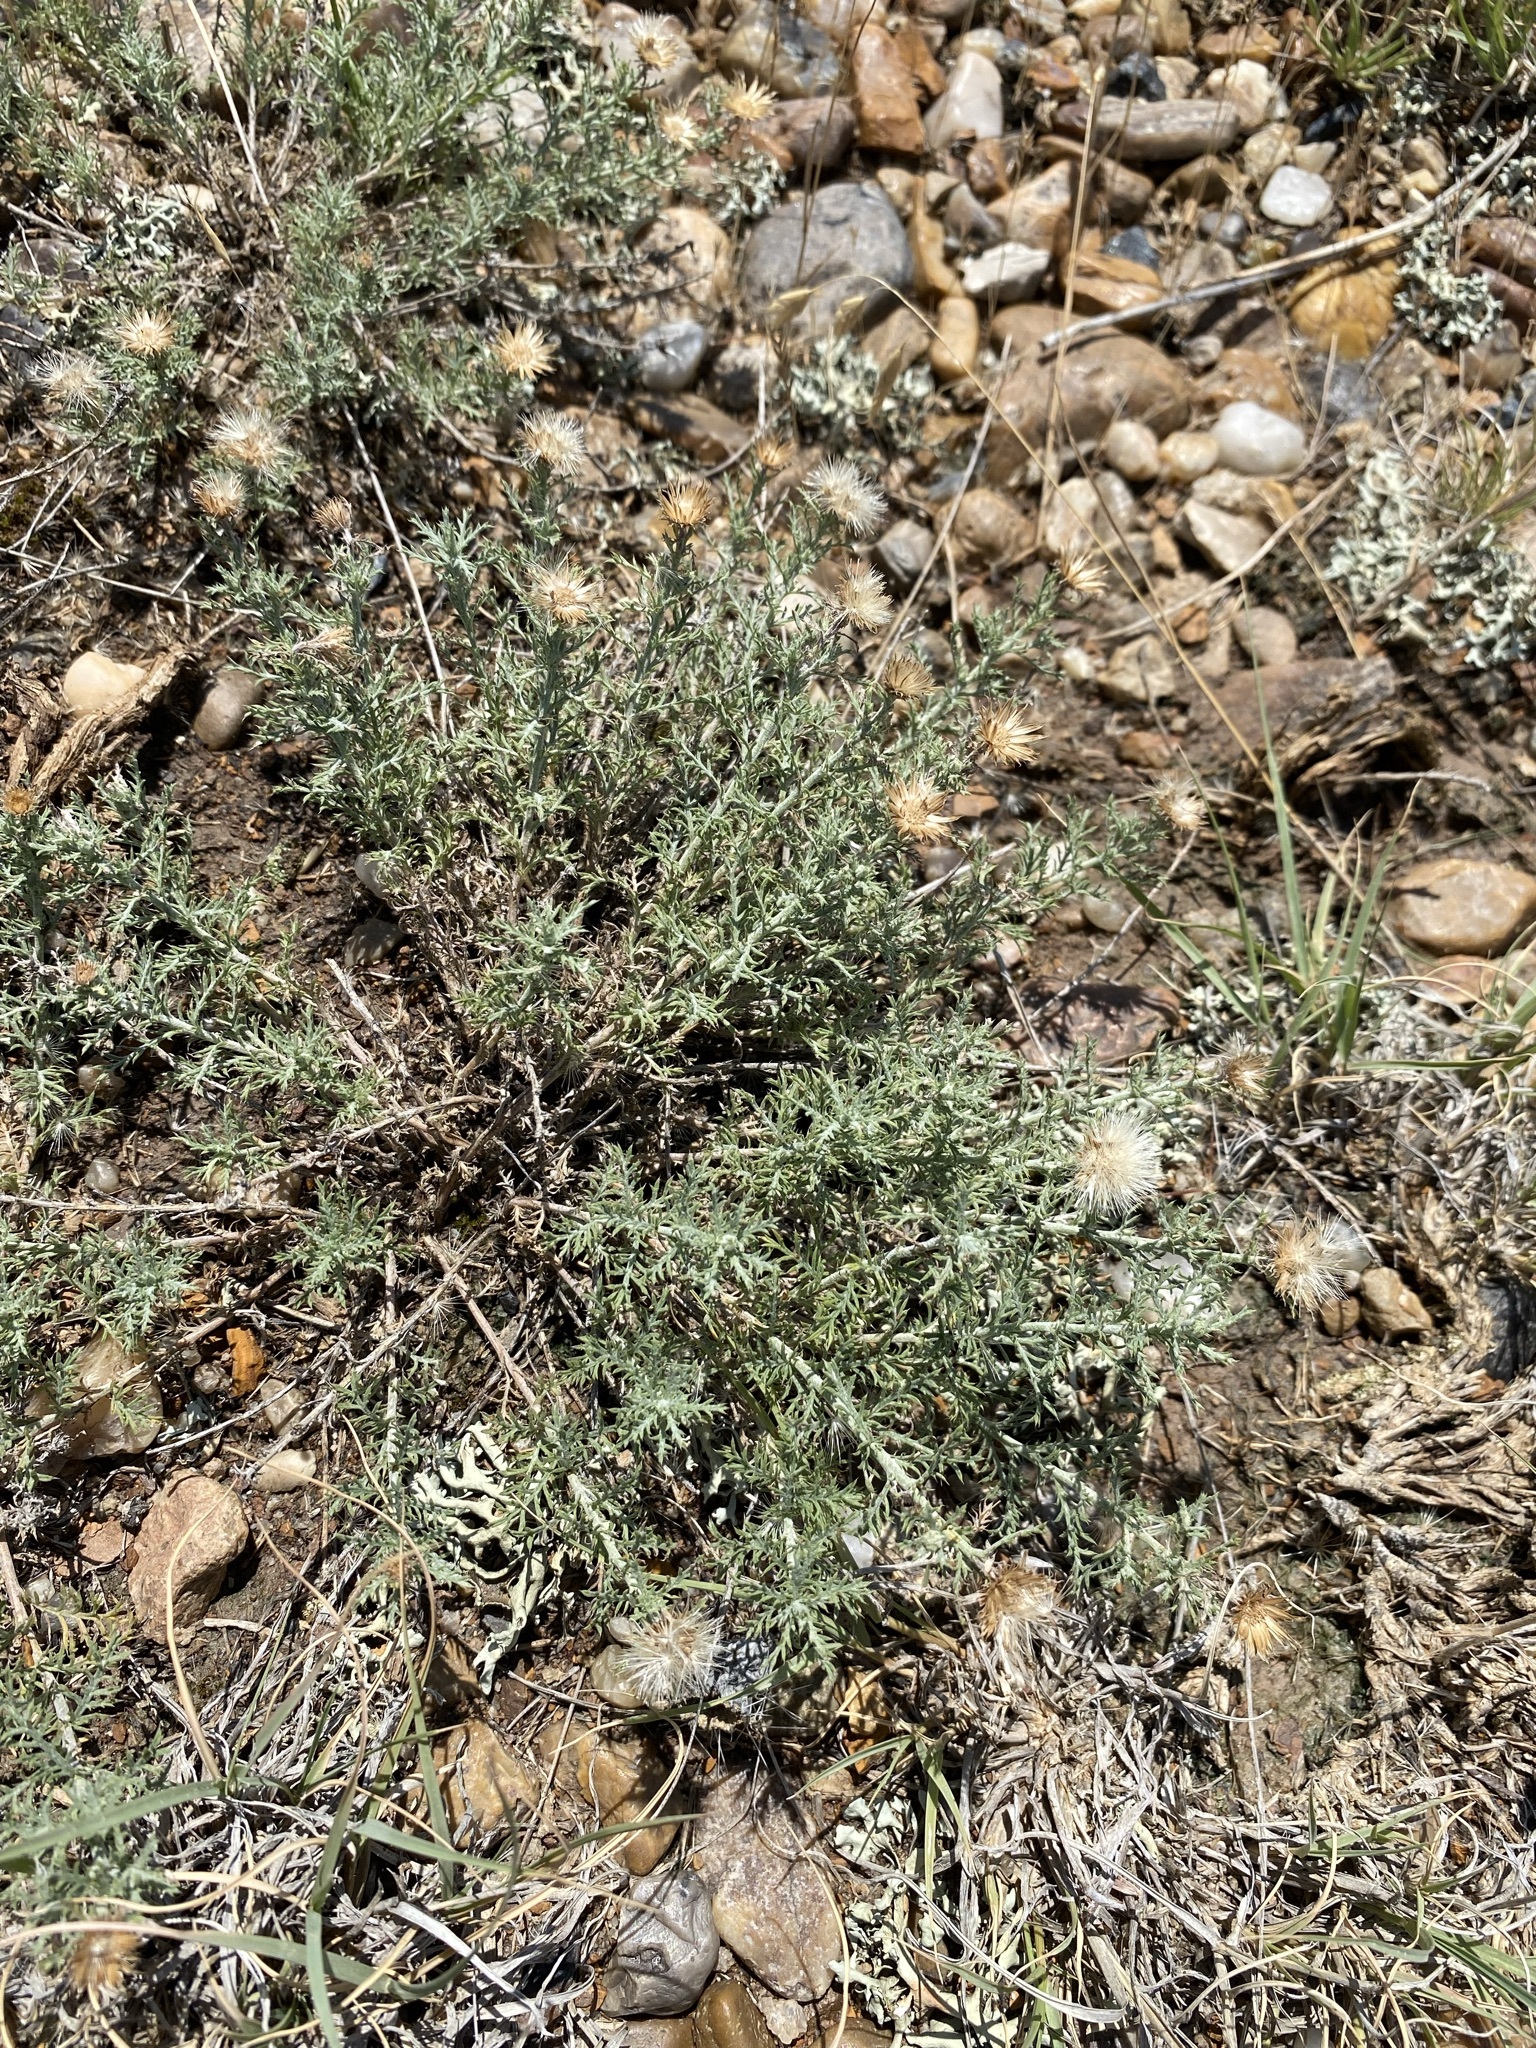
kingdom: Plantae
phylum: Tracheophyta
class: Magnoliopsida
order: Asterales
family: Asteraceae
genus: Xanthisma
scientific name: Xanthisma spinulosum
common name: Spiny goldenweed
